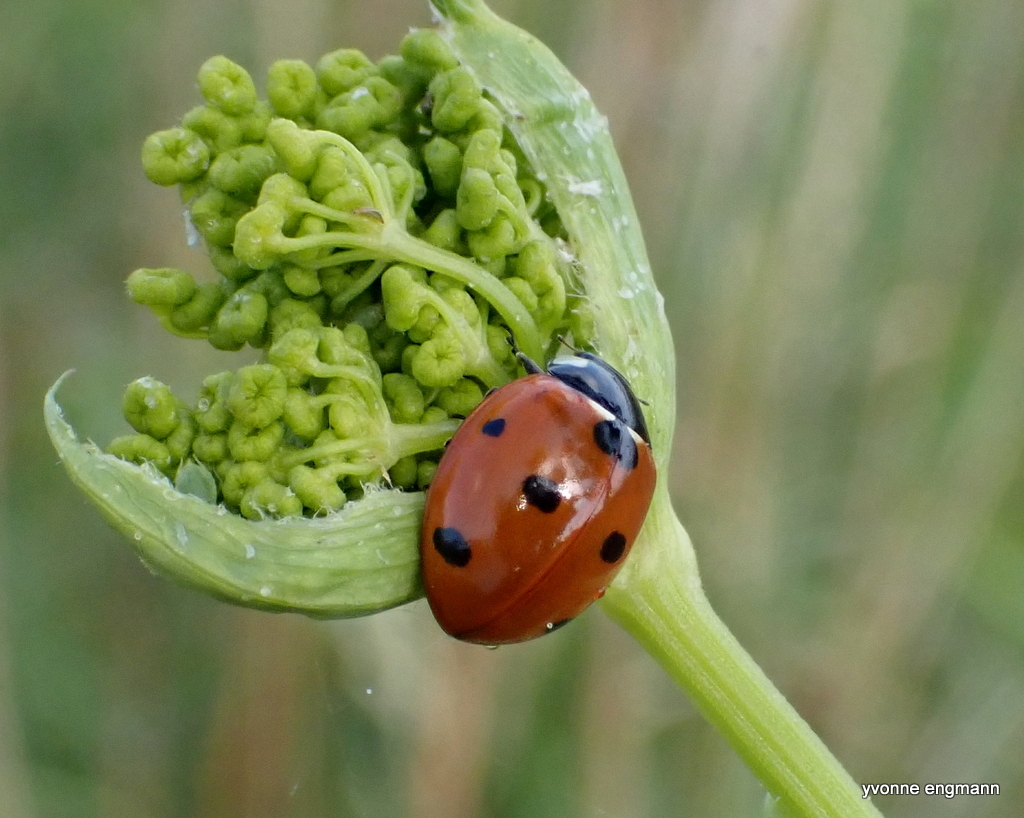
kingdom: Animalia
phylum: Arthropoda
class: Insecta
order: Coleoptera
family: Coccinellidae
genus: Coccinella
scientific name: Coccinella septempunctata
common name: Sevenspotted lady beetle
